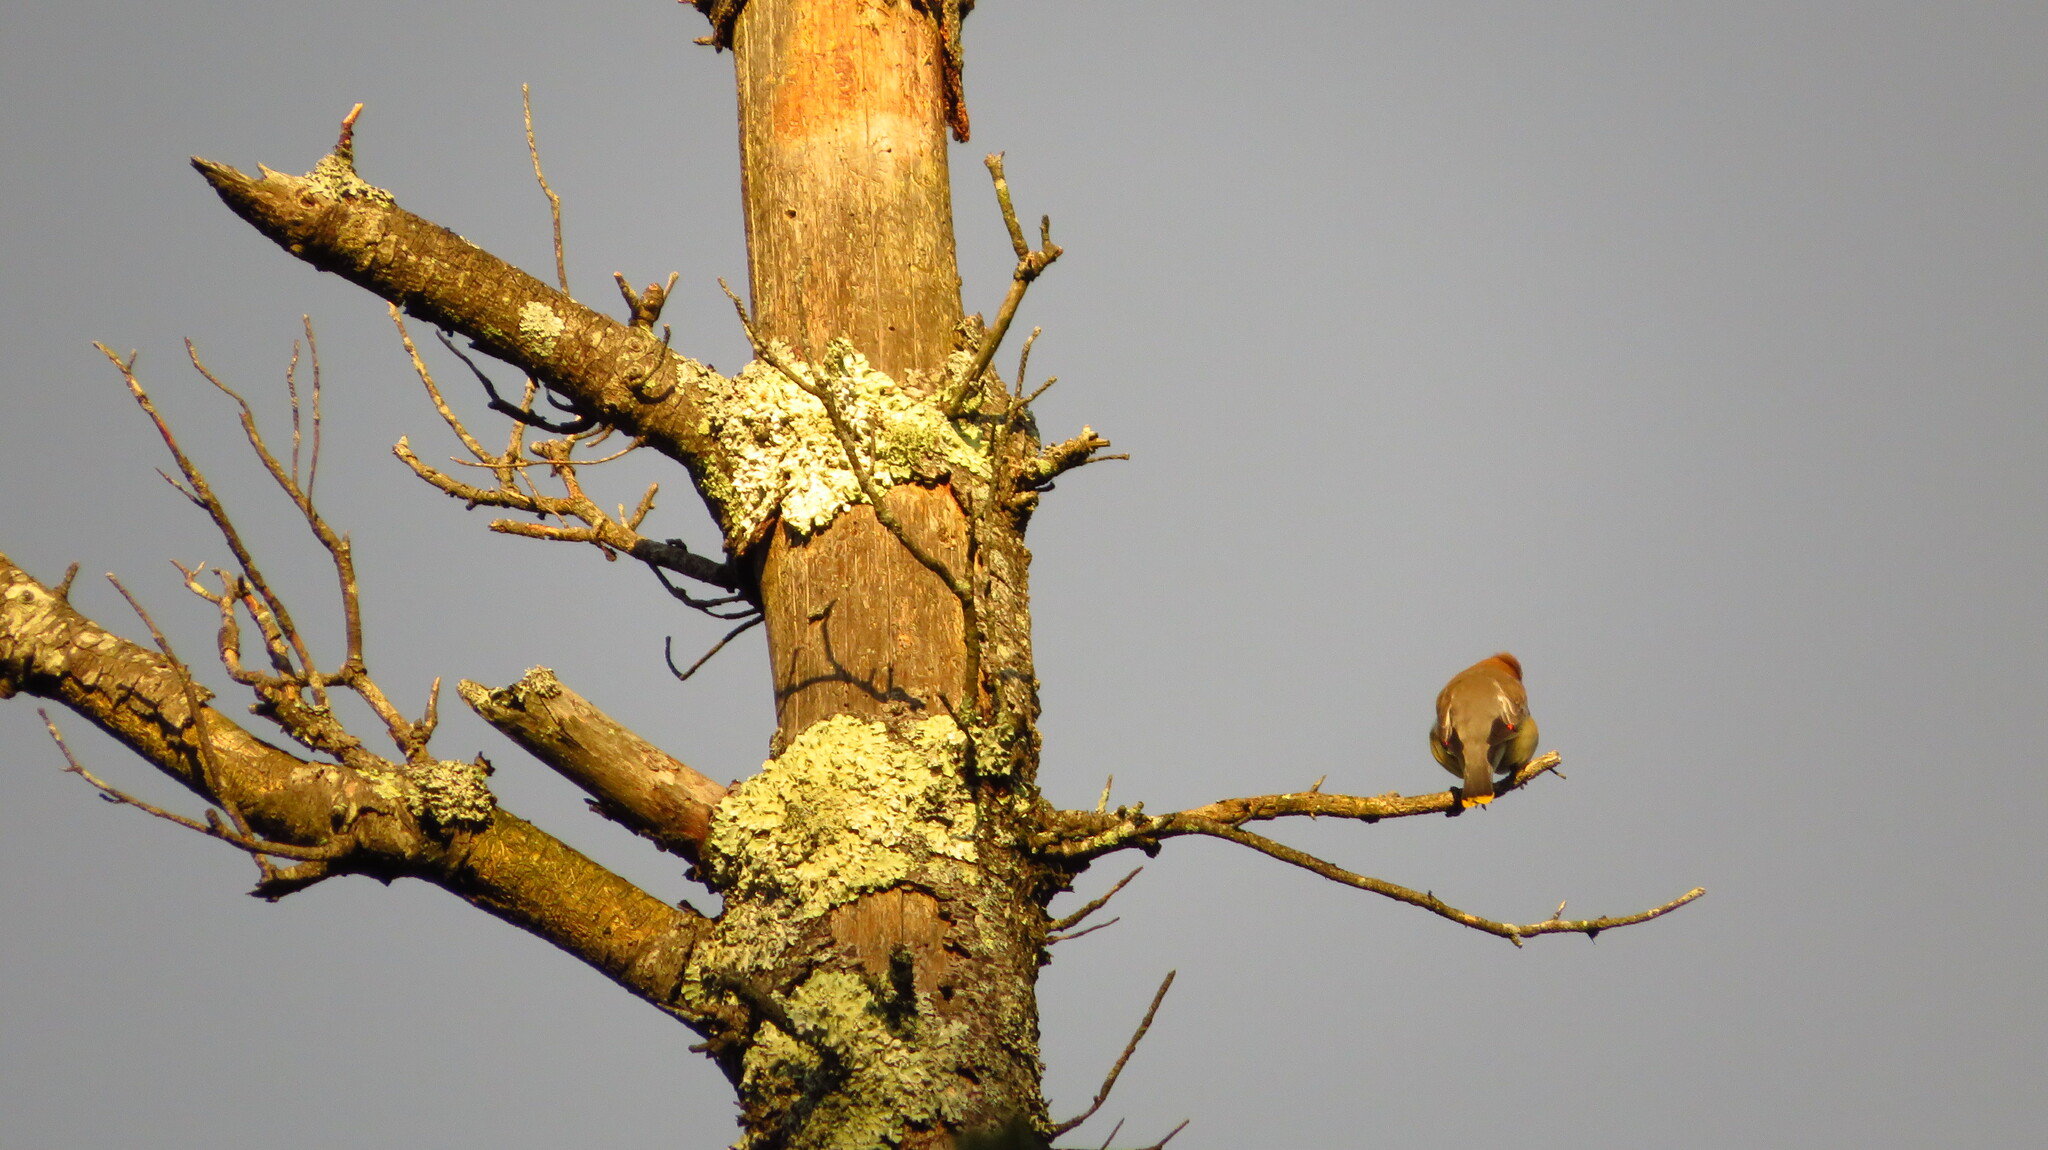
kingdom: Animalia
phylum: Chordata
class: Aves
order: Passeriformes
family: Bombycillidae
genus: Bombycilla
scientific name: Bombycilla cedrorum
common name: Cedar waxwing
